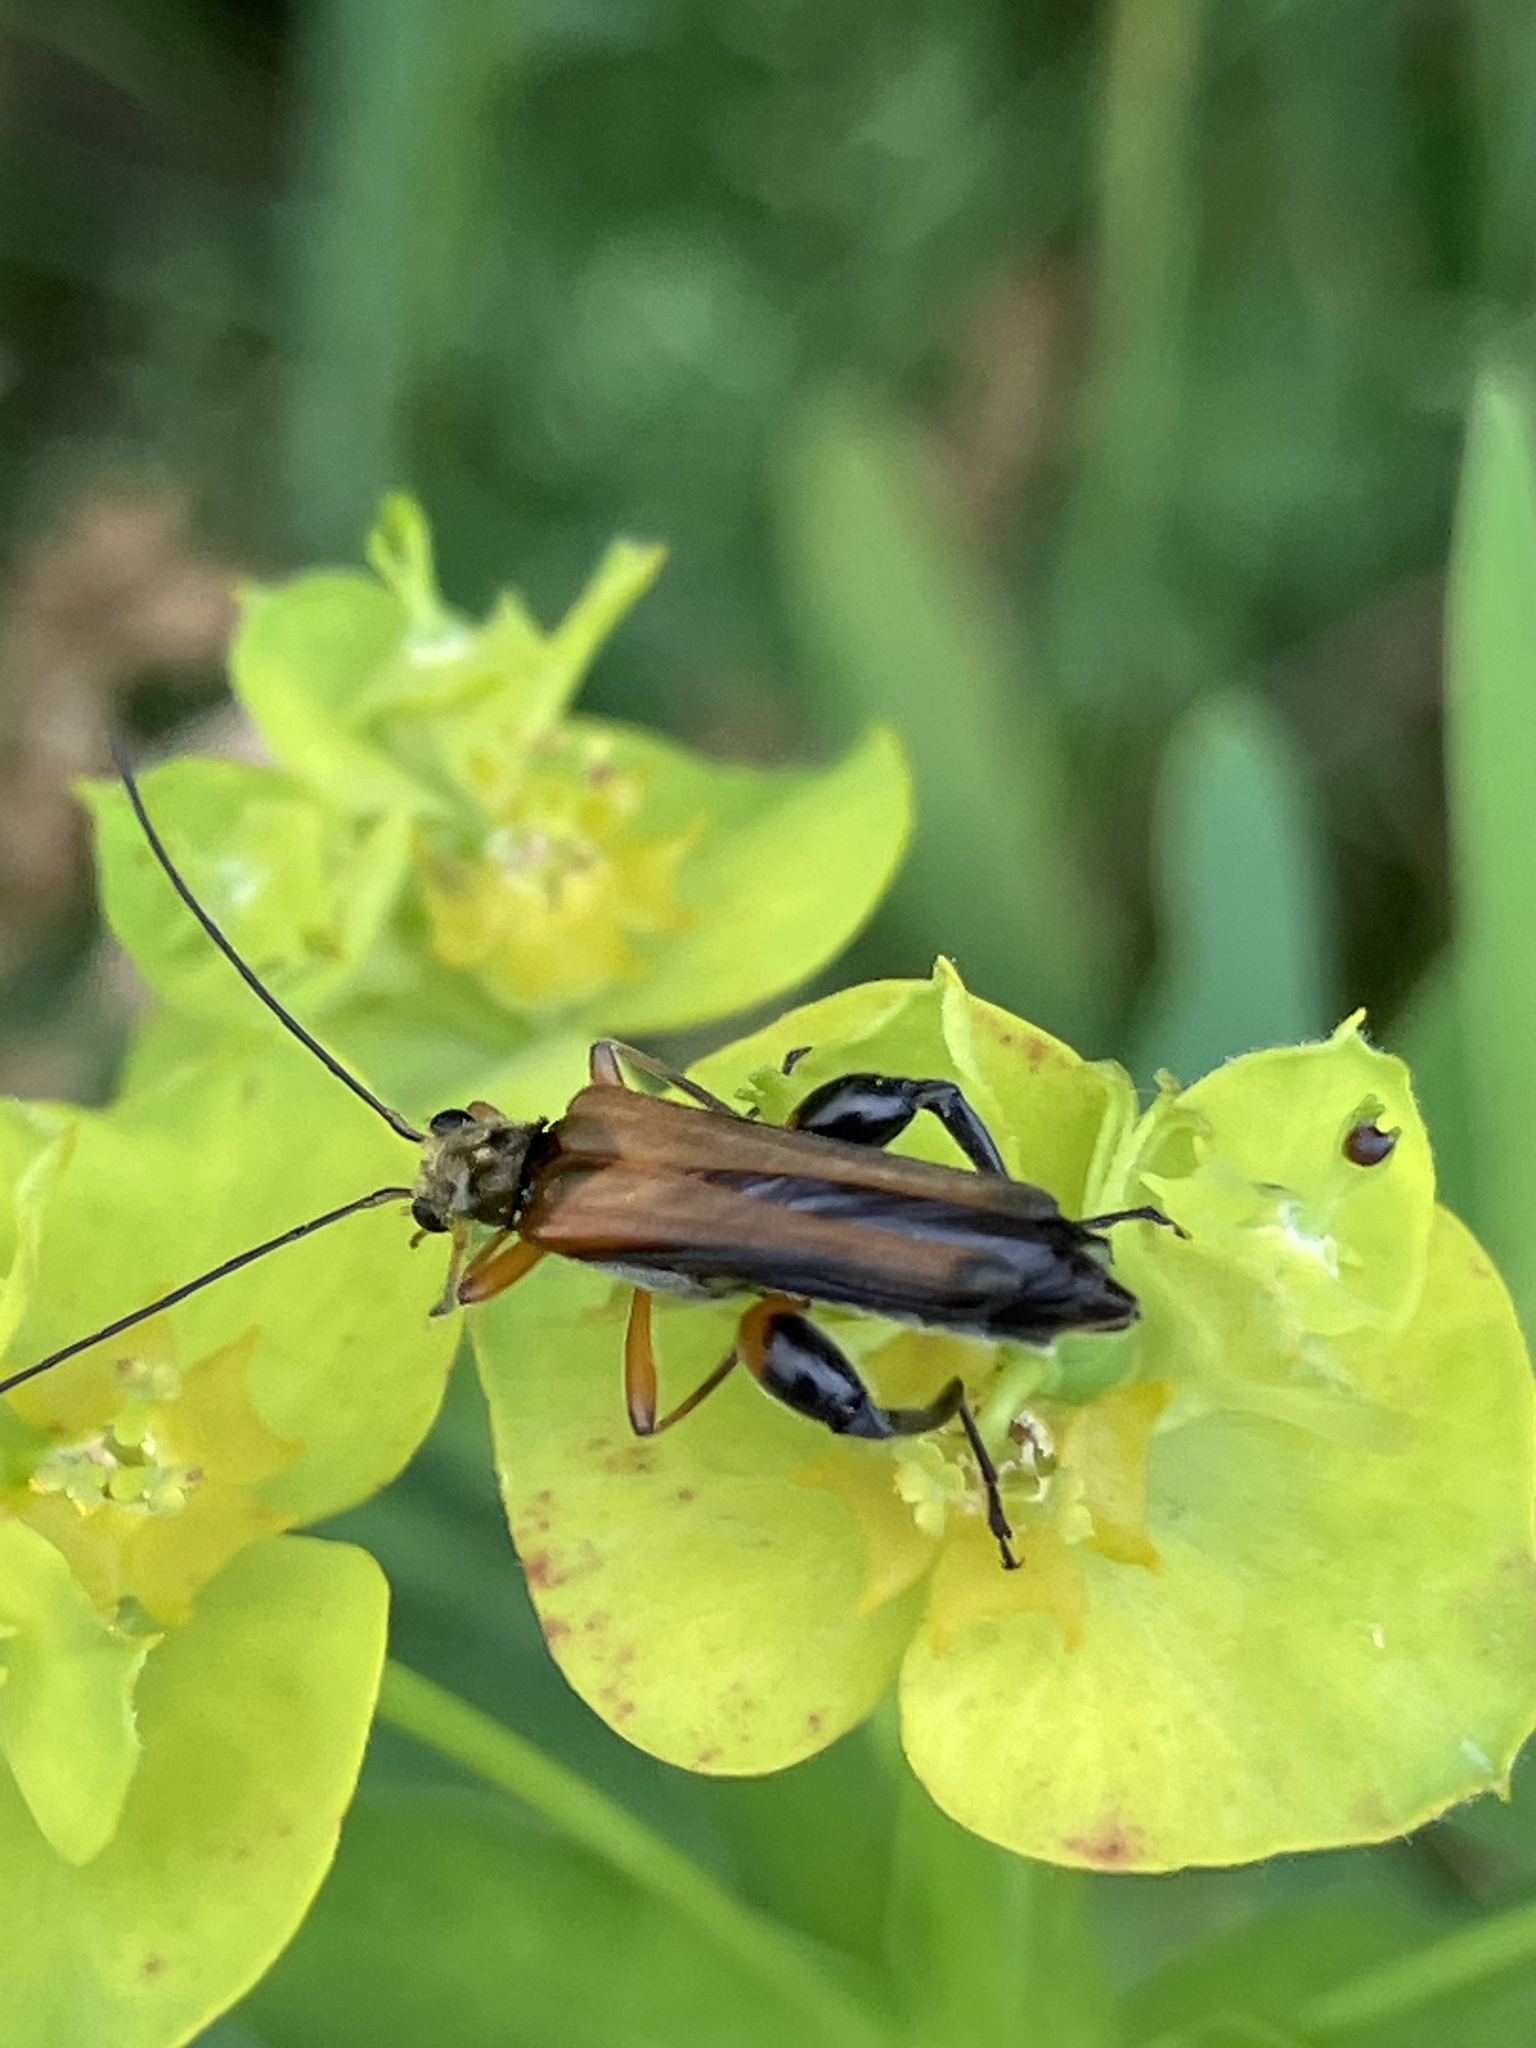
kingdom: Animalia
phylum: Arthropoda
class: Insecta
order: Coleoptera
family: Oedemeridae
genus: Oedemera
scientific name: Oedemera podagrariae
